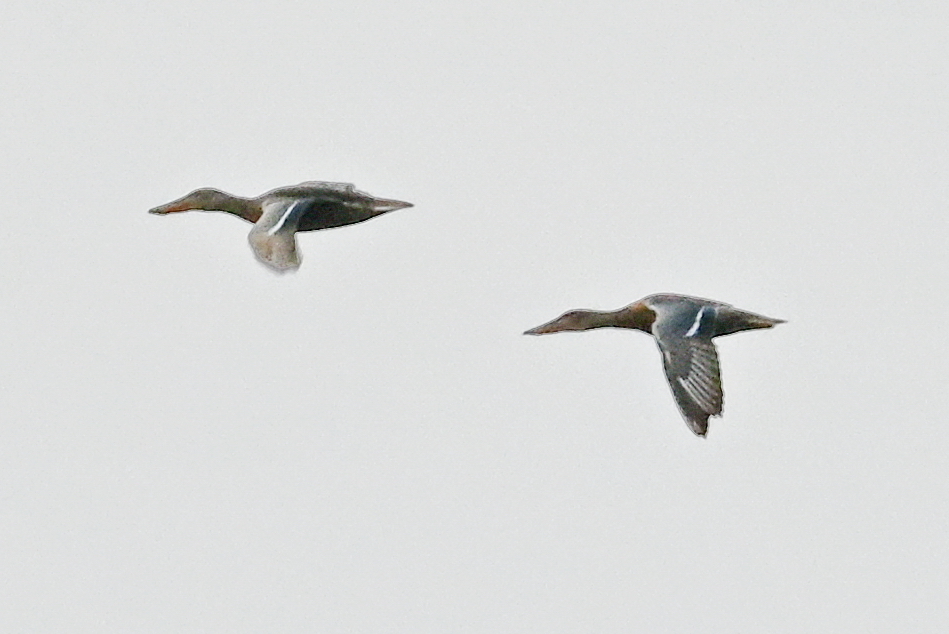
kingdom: Animalia
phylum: Chordata
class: Aves
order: Anseriformes
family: Anatidae
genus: Spatula
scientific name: Spatula clypeata
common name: Northern shoveler
